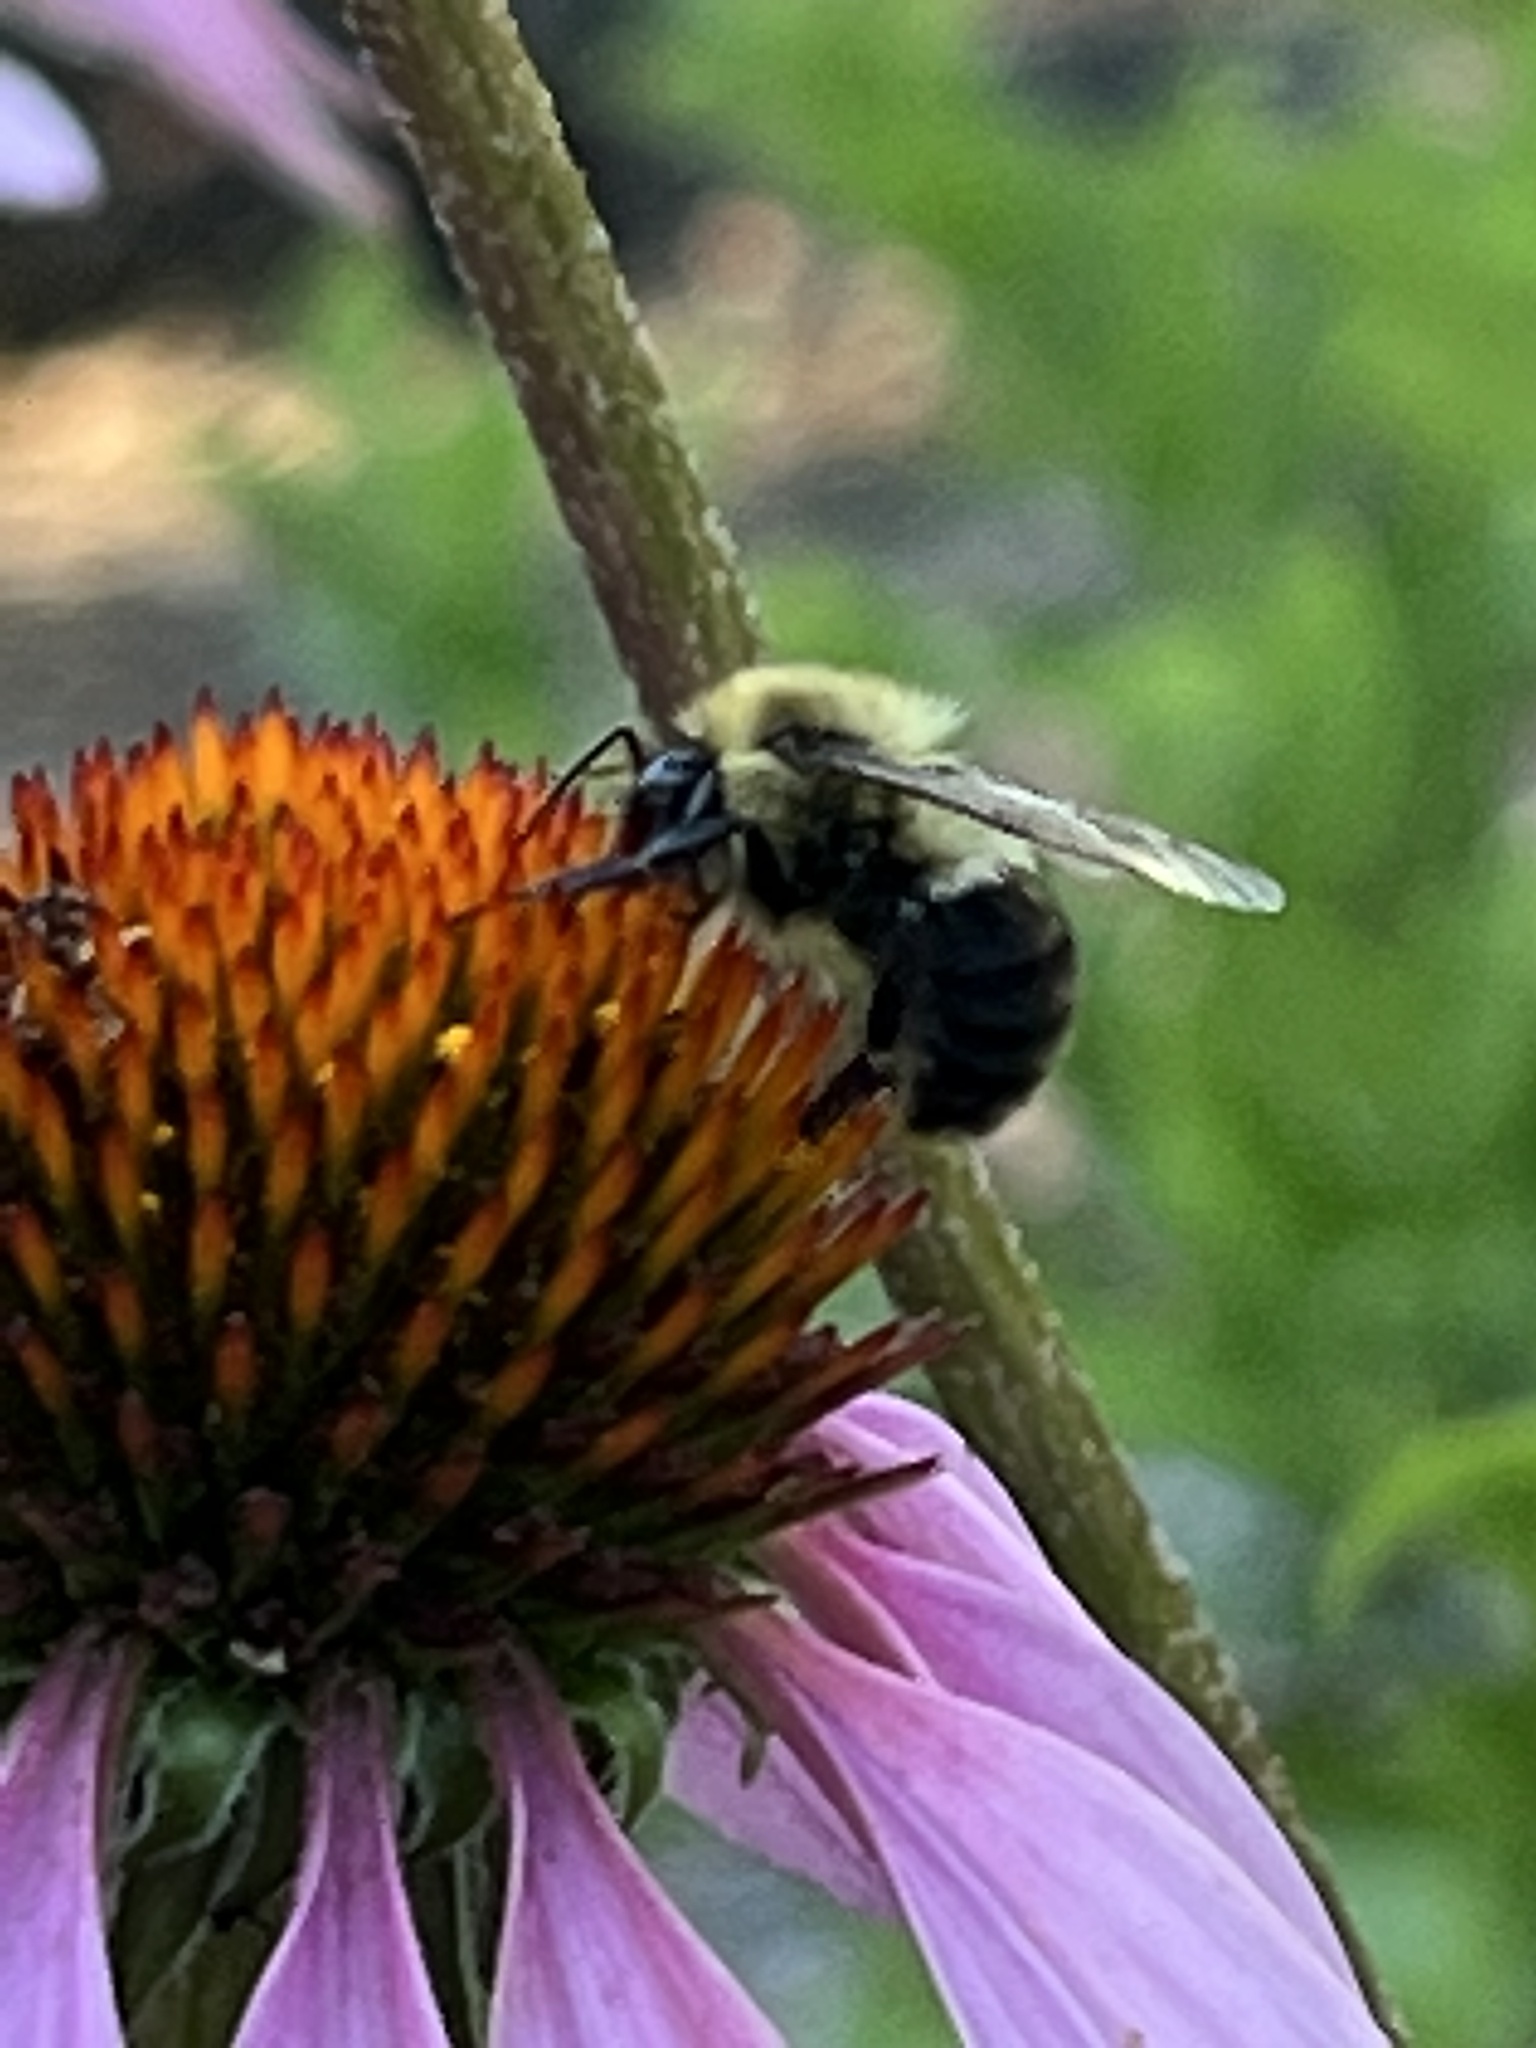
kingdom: Animalia
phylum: Arthropoda
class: Insecta
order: Hymenoptera
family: Apidae
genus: Bombus
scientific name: Bombus impatiens
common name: Common eastern bumble bee
